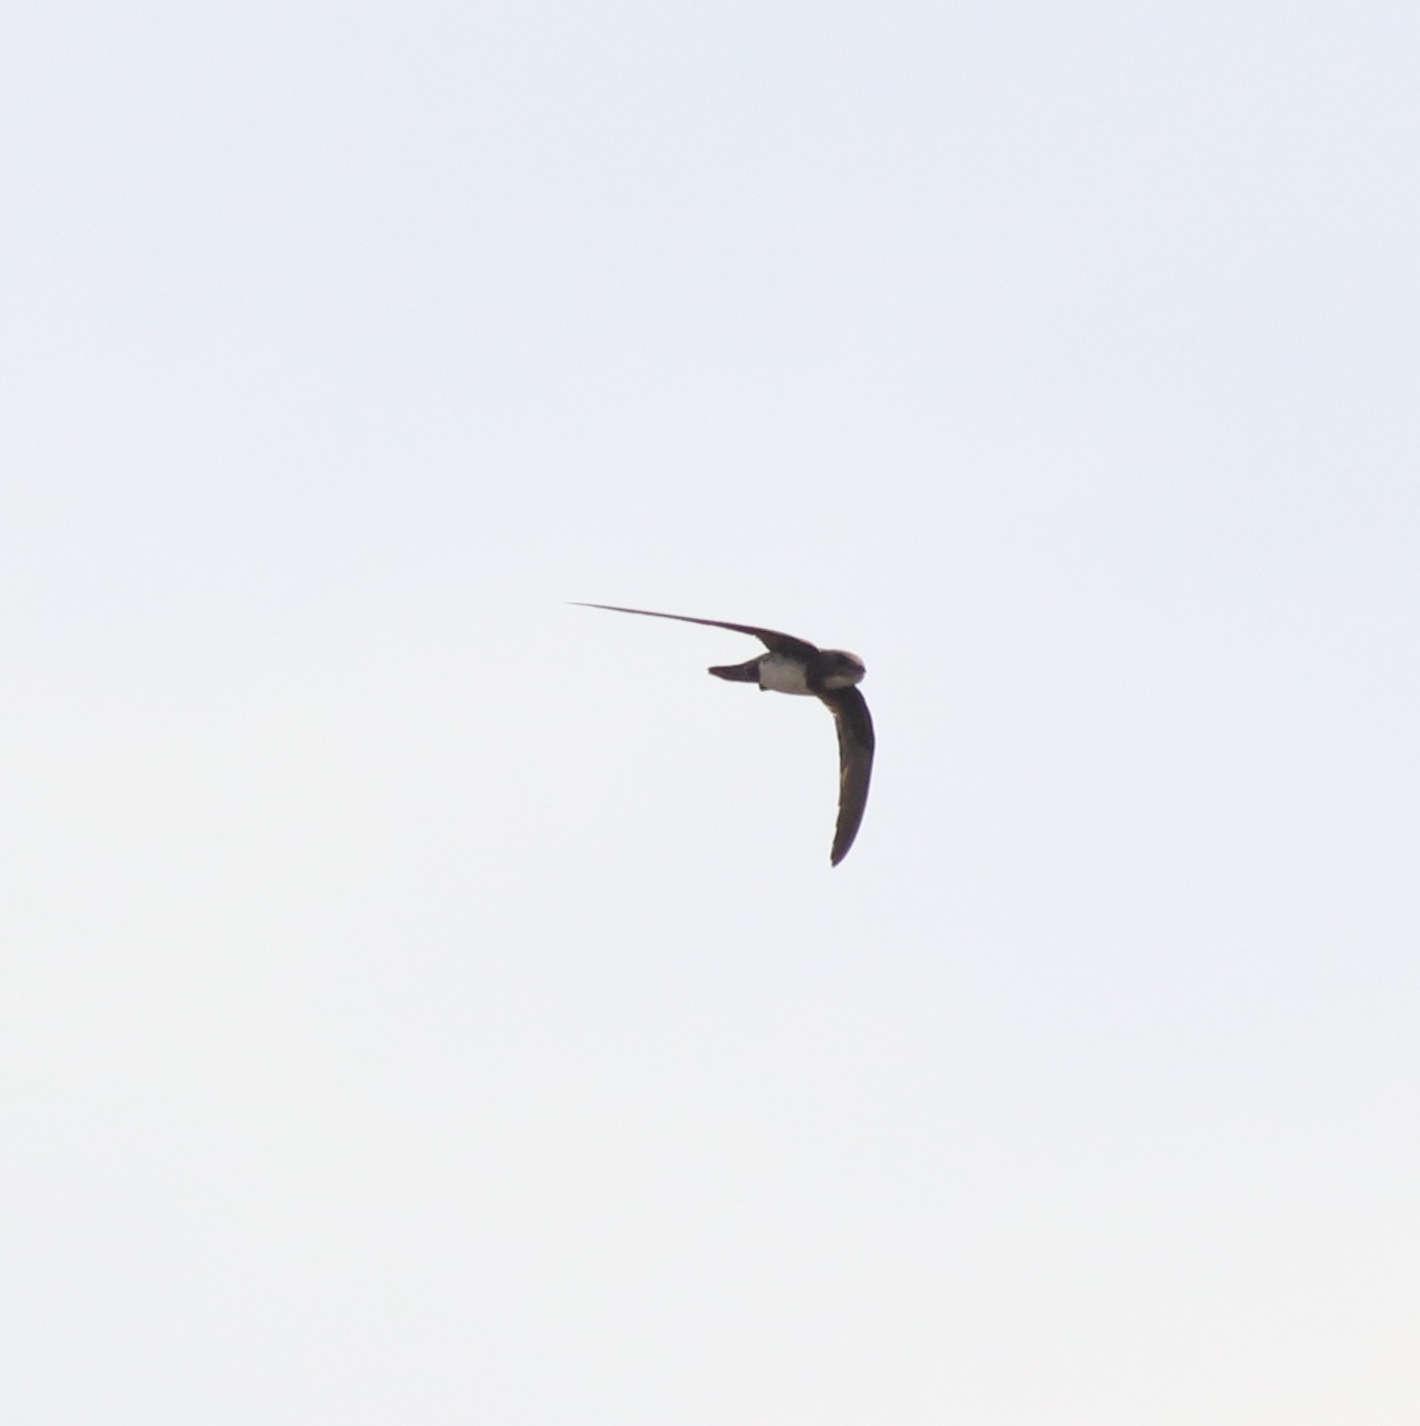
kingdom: Animalia
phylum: Chordata
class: Aves
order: Apodiformes
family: Apodidae
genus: Tachymarptis
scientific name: Tachymarptis melba
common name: Alpine swift
